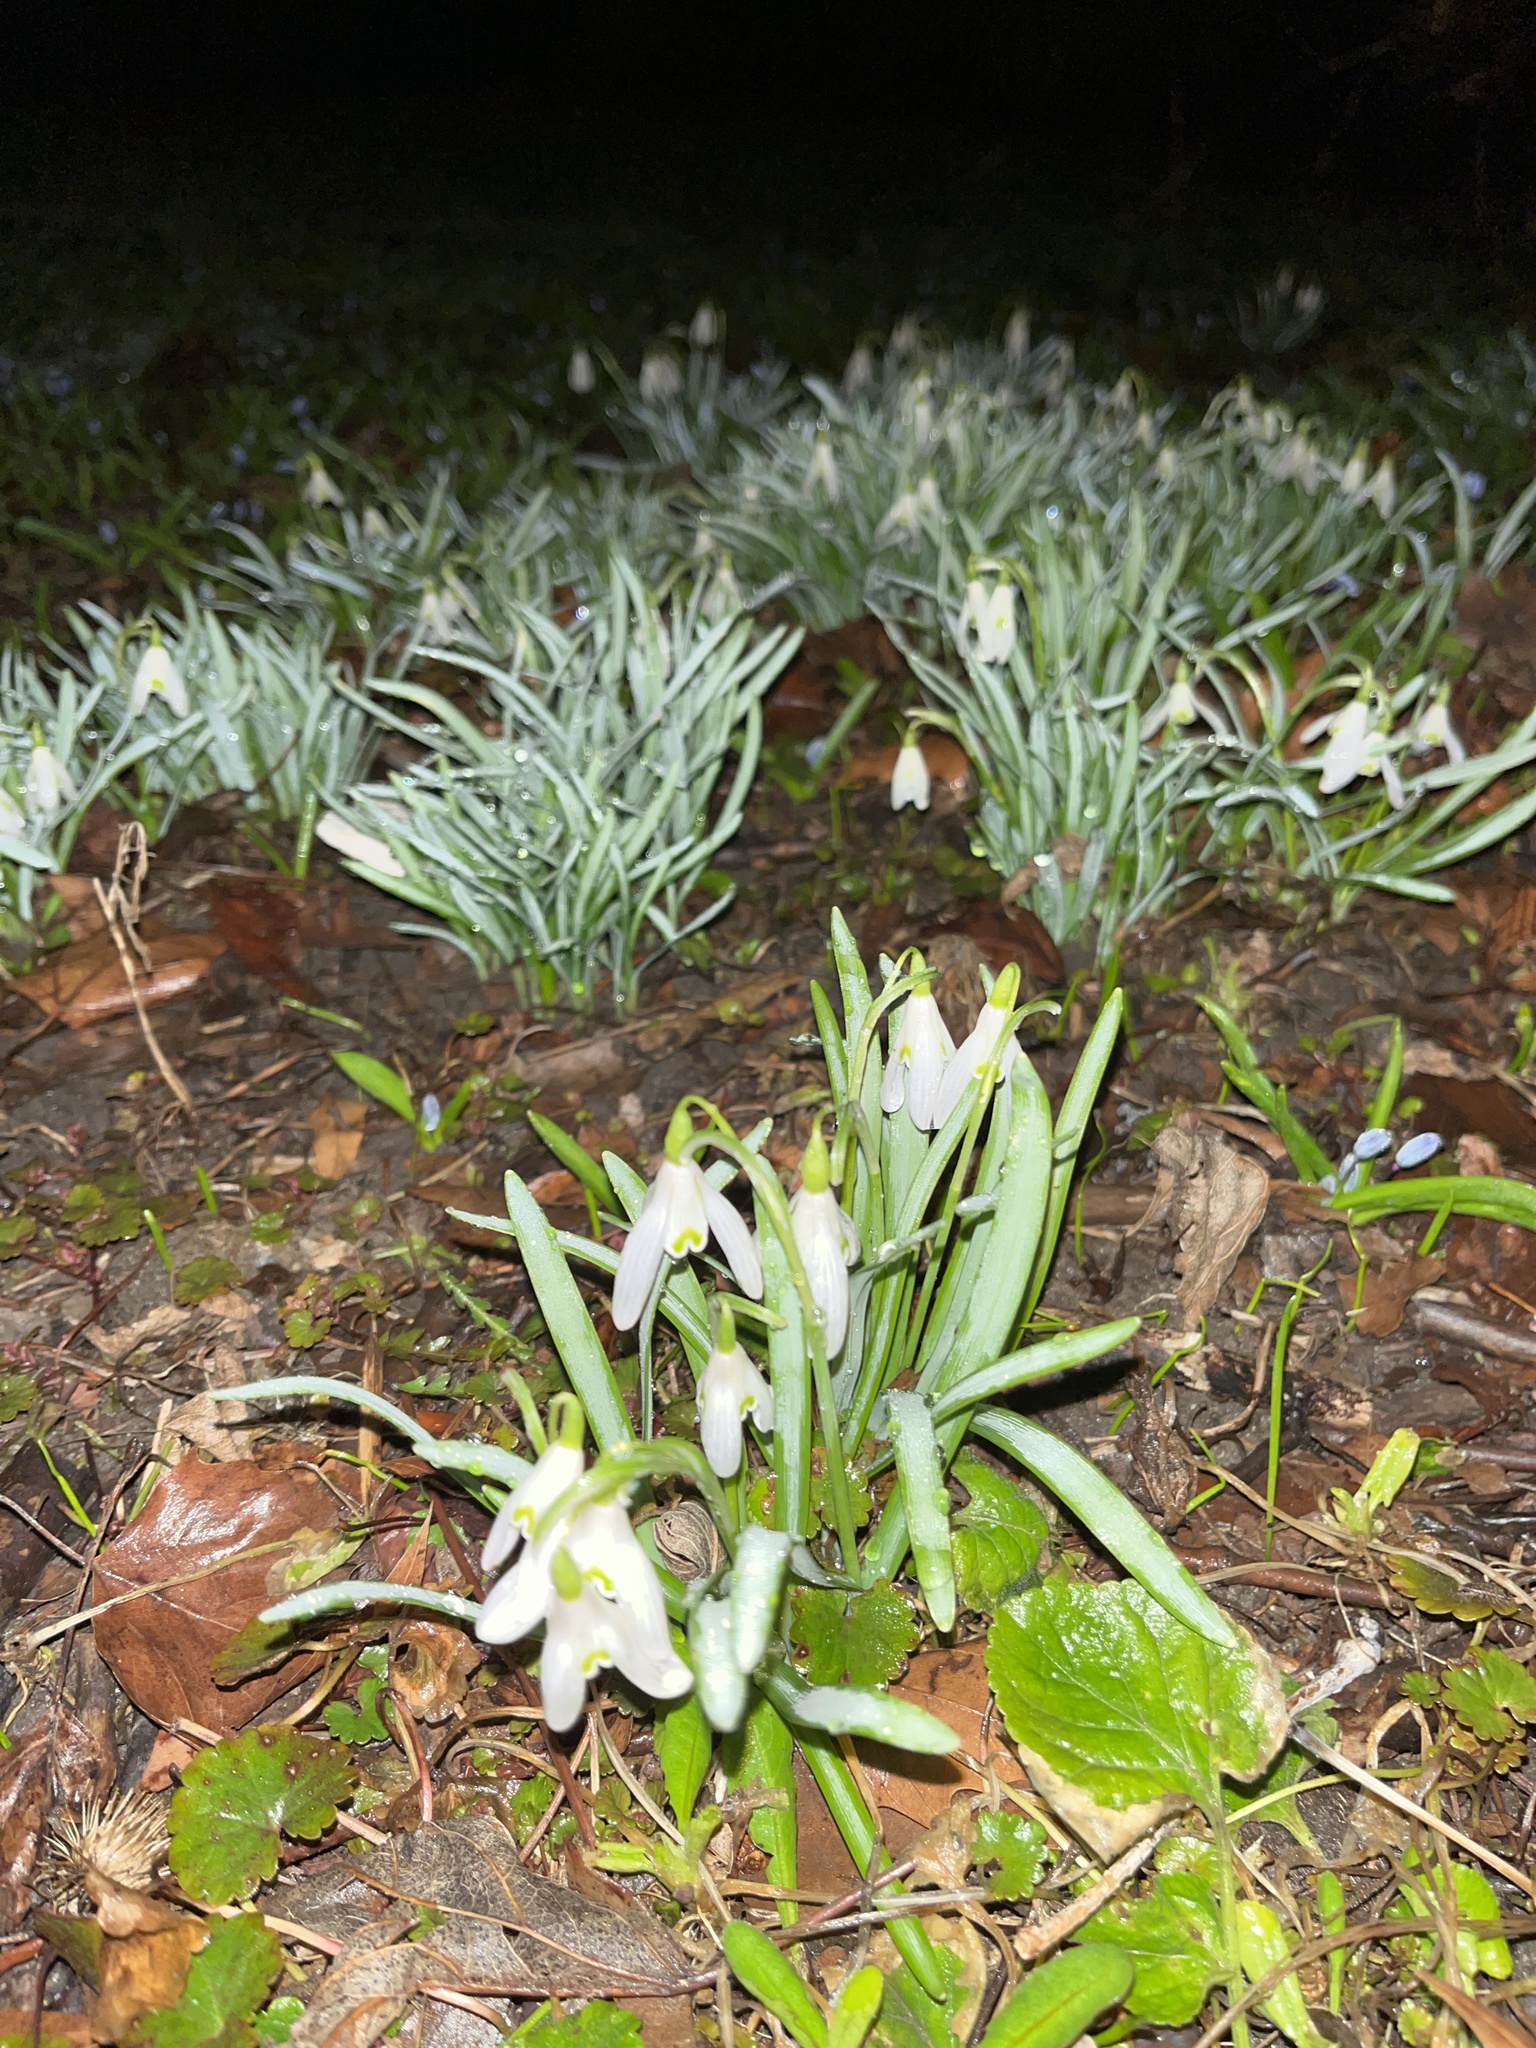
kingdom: Plantae
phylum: Tracheophyta
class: Liliopsida
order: Asparagales
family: Amaryllidaceae
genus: Galanthus
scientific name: Galanthus nivalis
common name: Snowdrop
